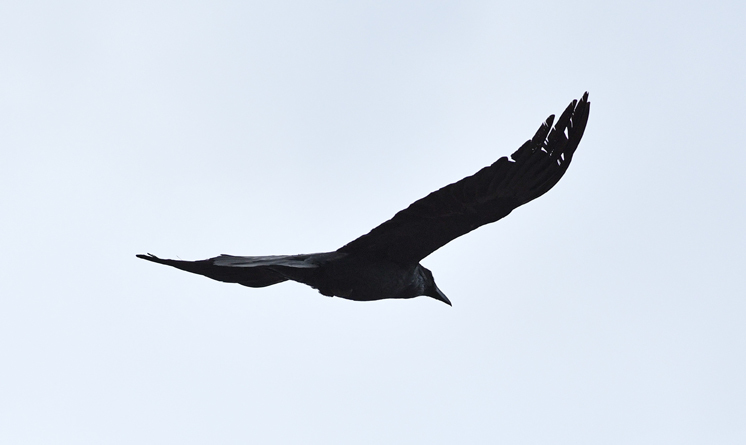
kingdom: Animalia
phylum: Chordata
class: Aves
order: Passeriformes
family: Corvidae
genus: Corvus
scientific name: Corvus corax
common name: Common raven
